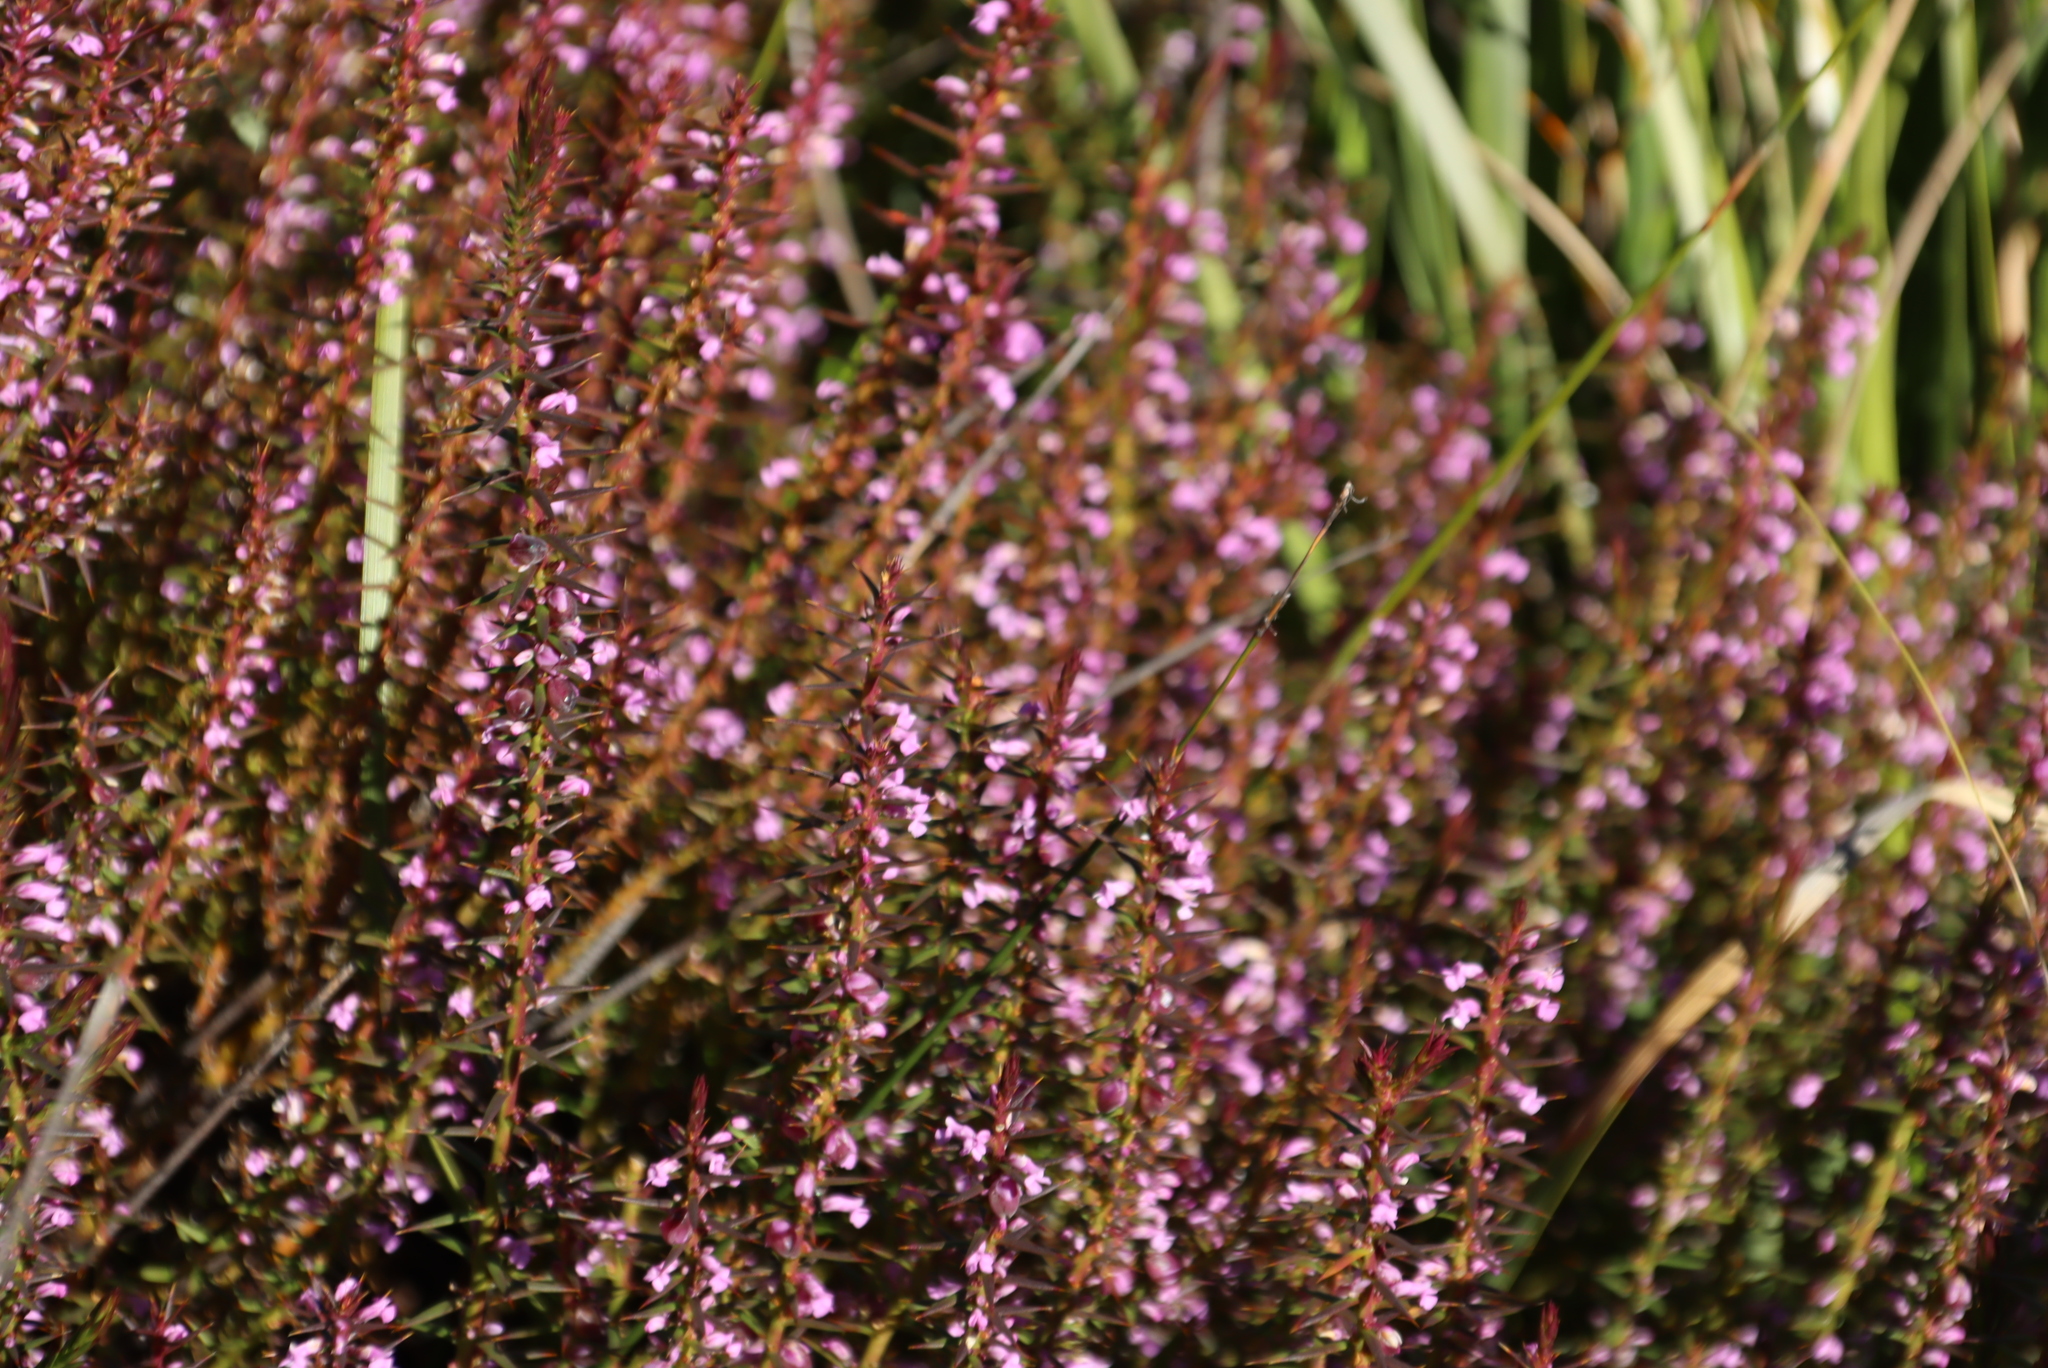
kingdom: Plantae
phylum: Tracheophyta
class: Magnoliopsida
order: Fabales
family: Polygalaceae
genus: Muraltia
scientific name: Muraltia juniperifolia
